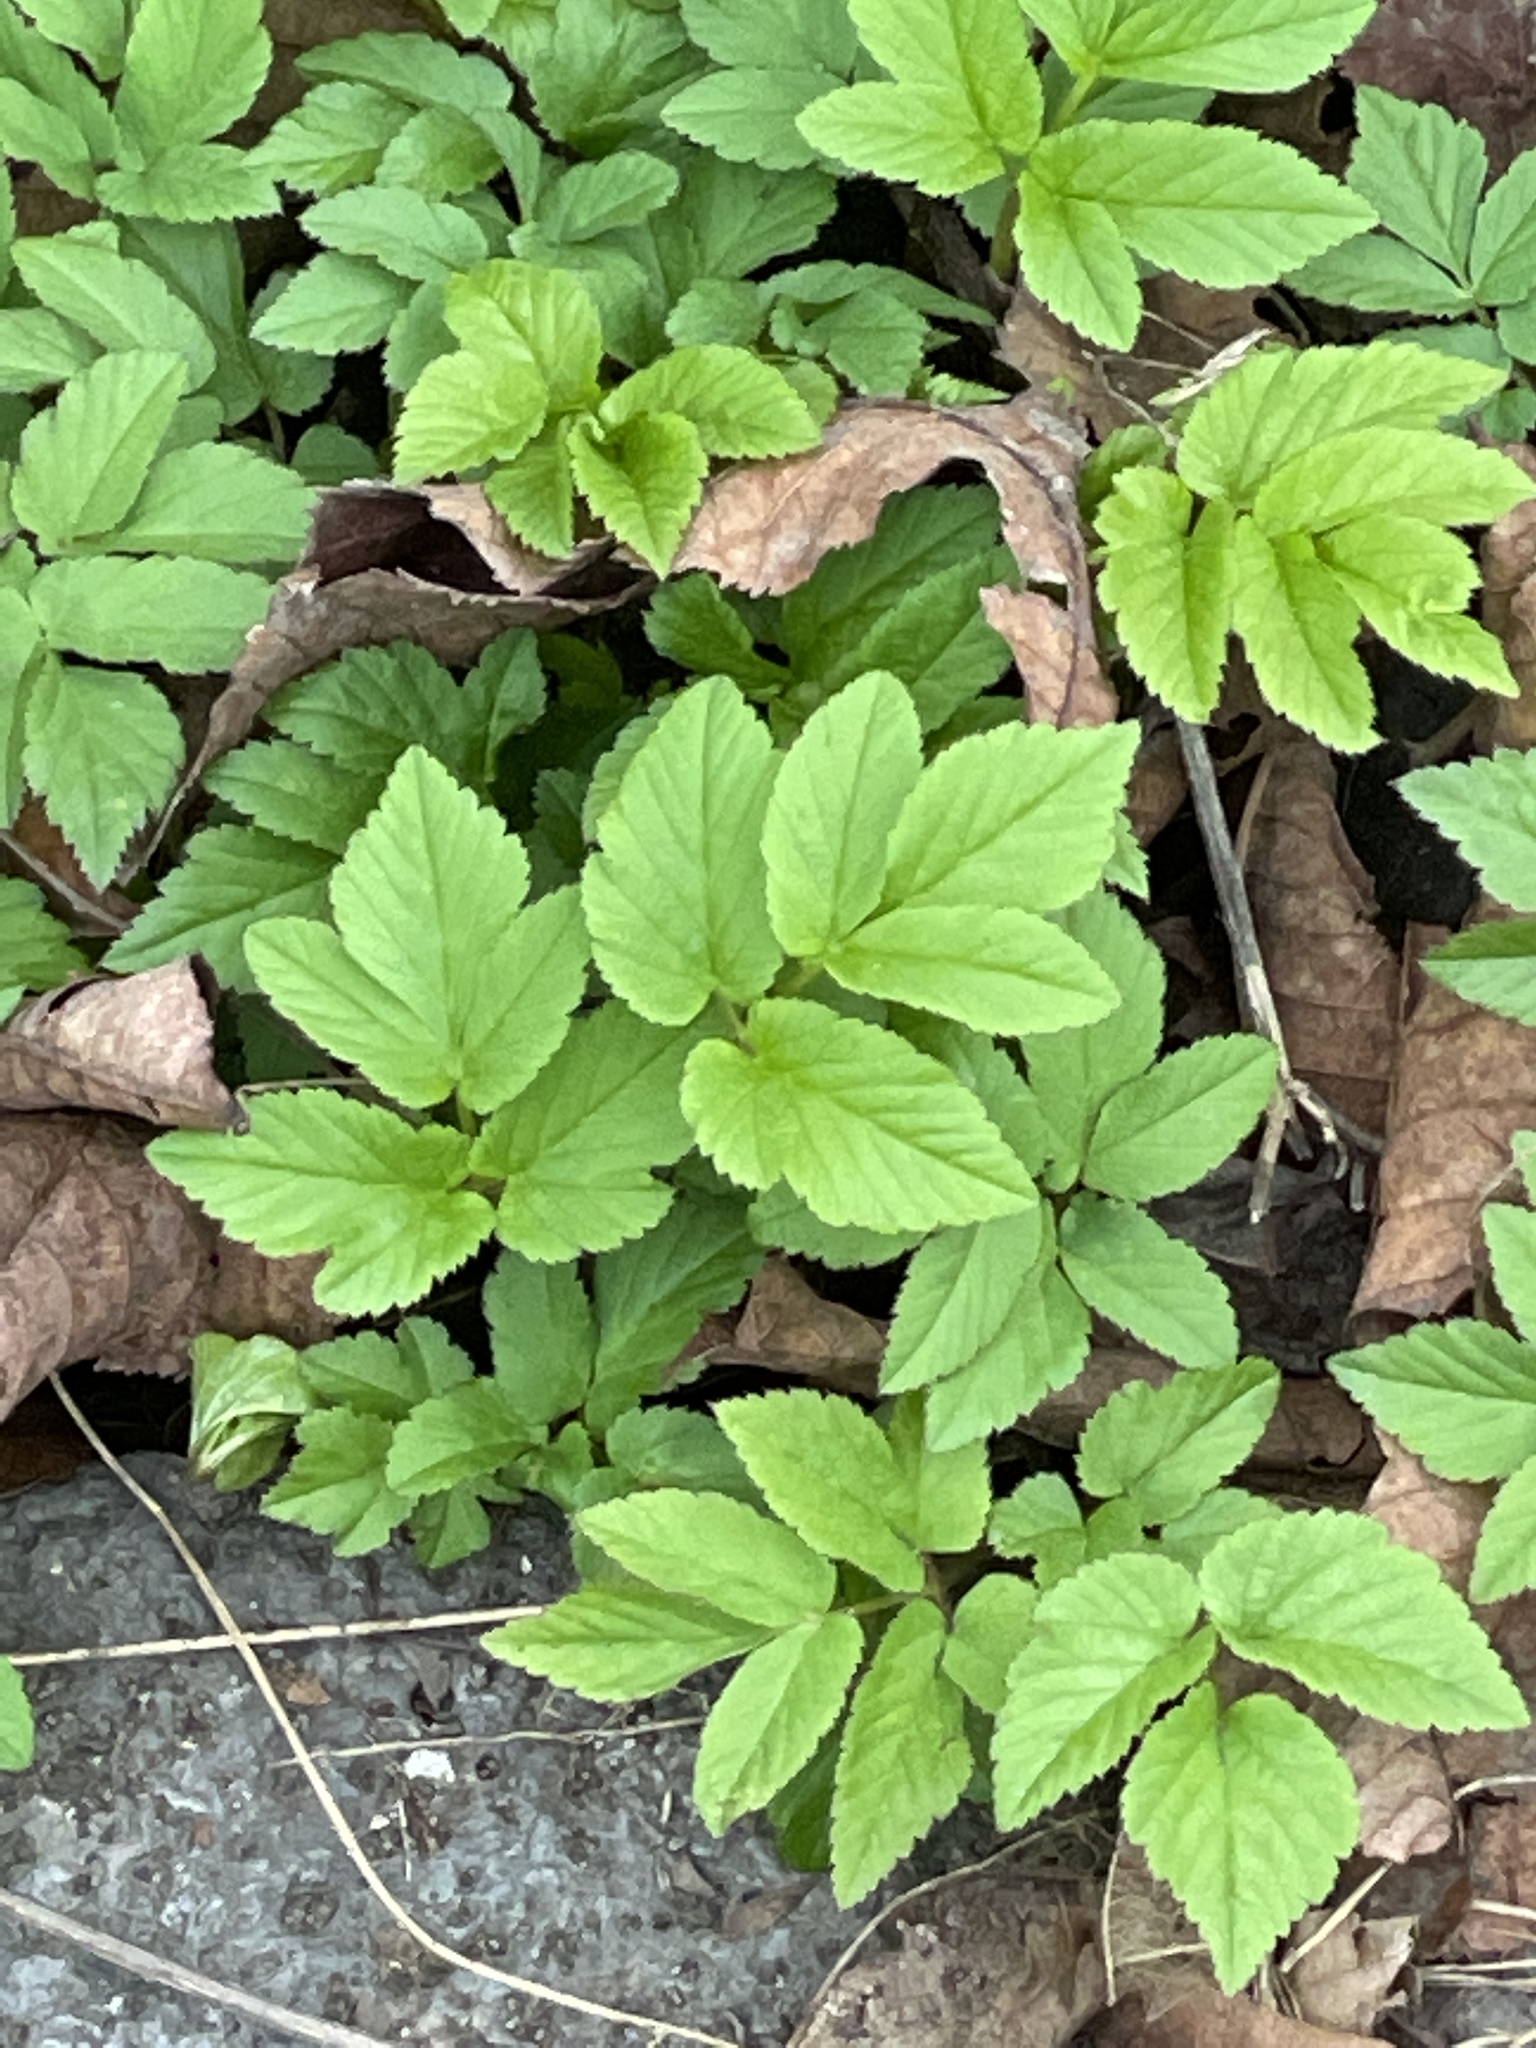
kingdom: Plantae
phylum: Tracheophyta
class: Magnoliopsida
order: Apiales
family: Apiaceae
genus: Aegopodium
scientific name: Aegopodium podagraria
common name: Ground-elder
